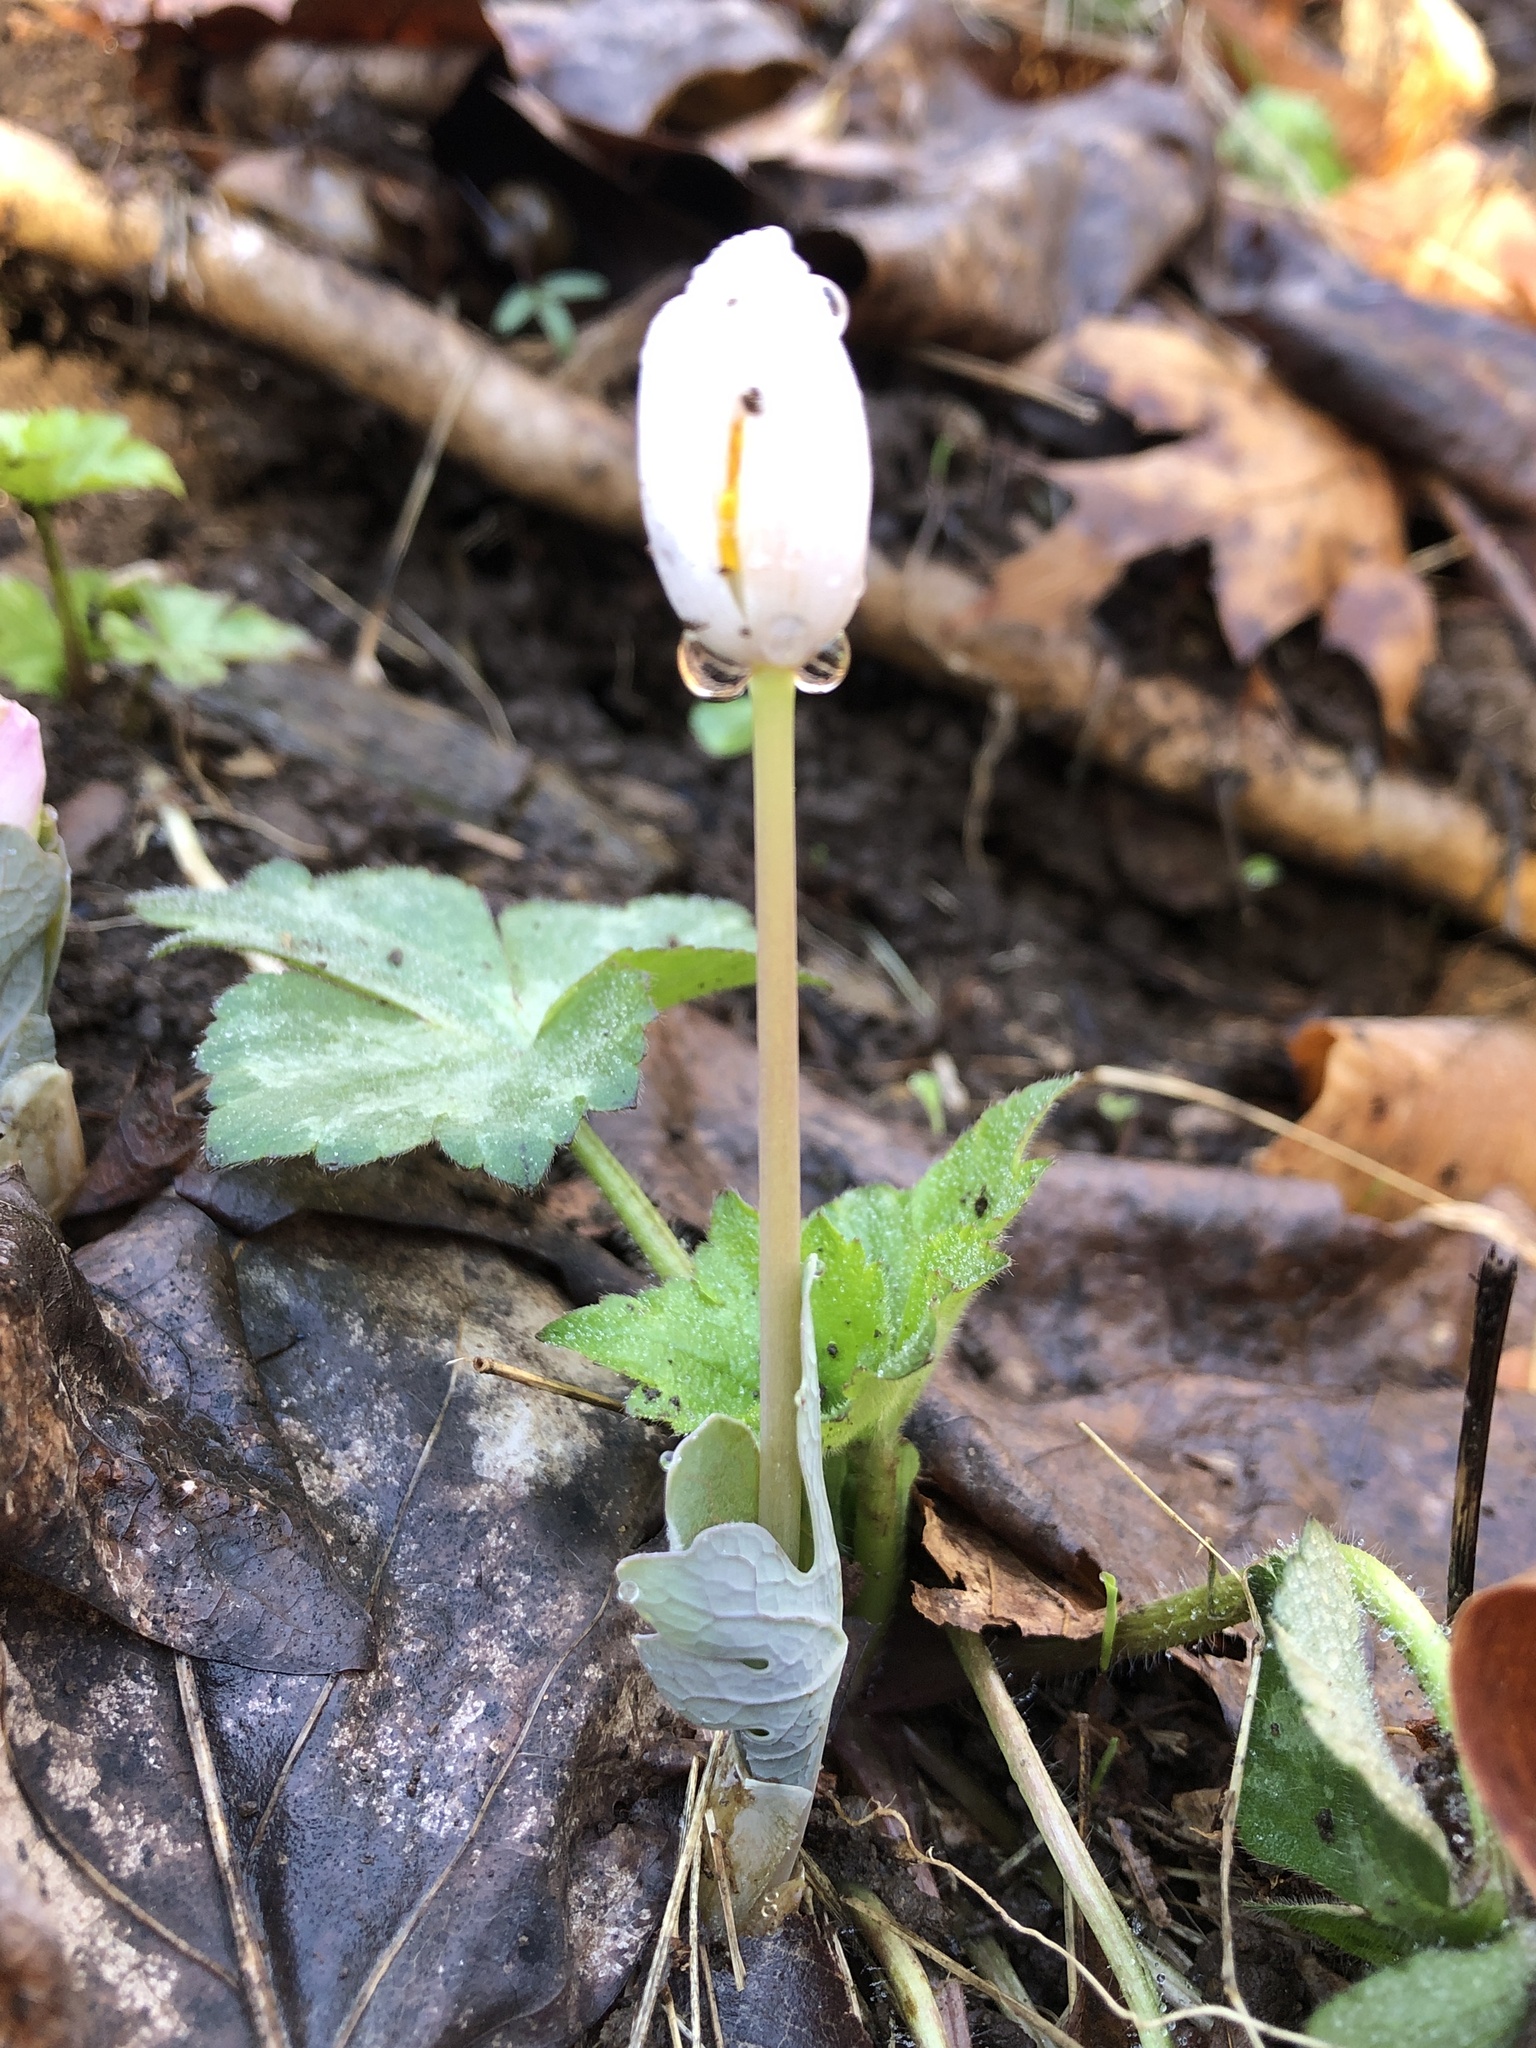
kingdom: Plantae
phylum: Tracheophyta
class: Magnoliopsida
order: Ranunculales
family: Papaveraceae
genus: Sanguinaria
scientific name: Sanguinaria canadensis
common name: Bloodroot
